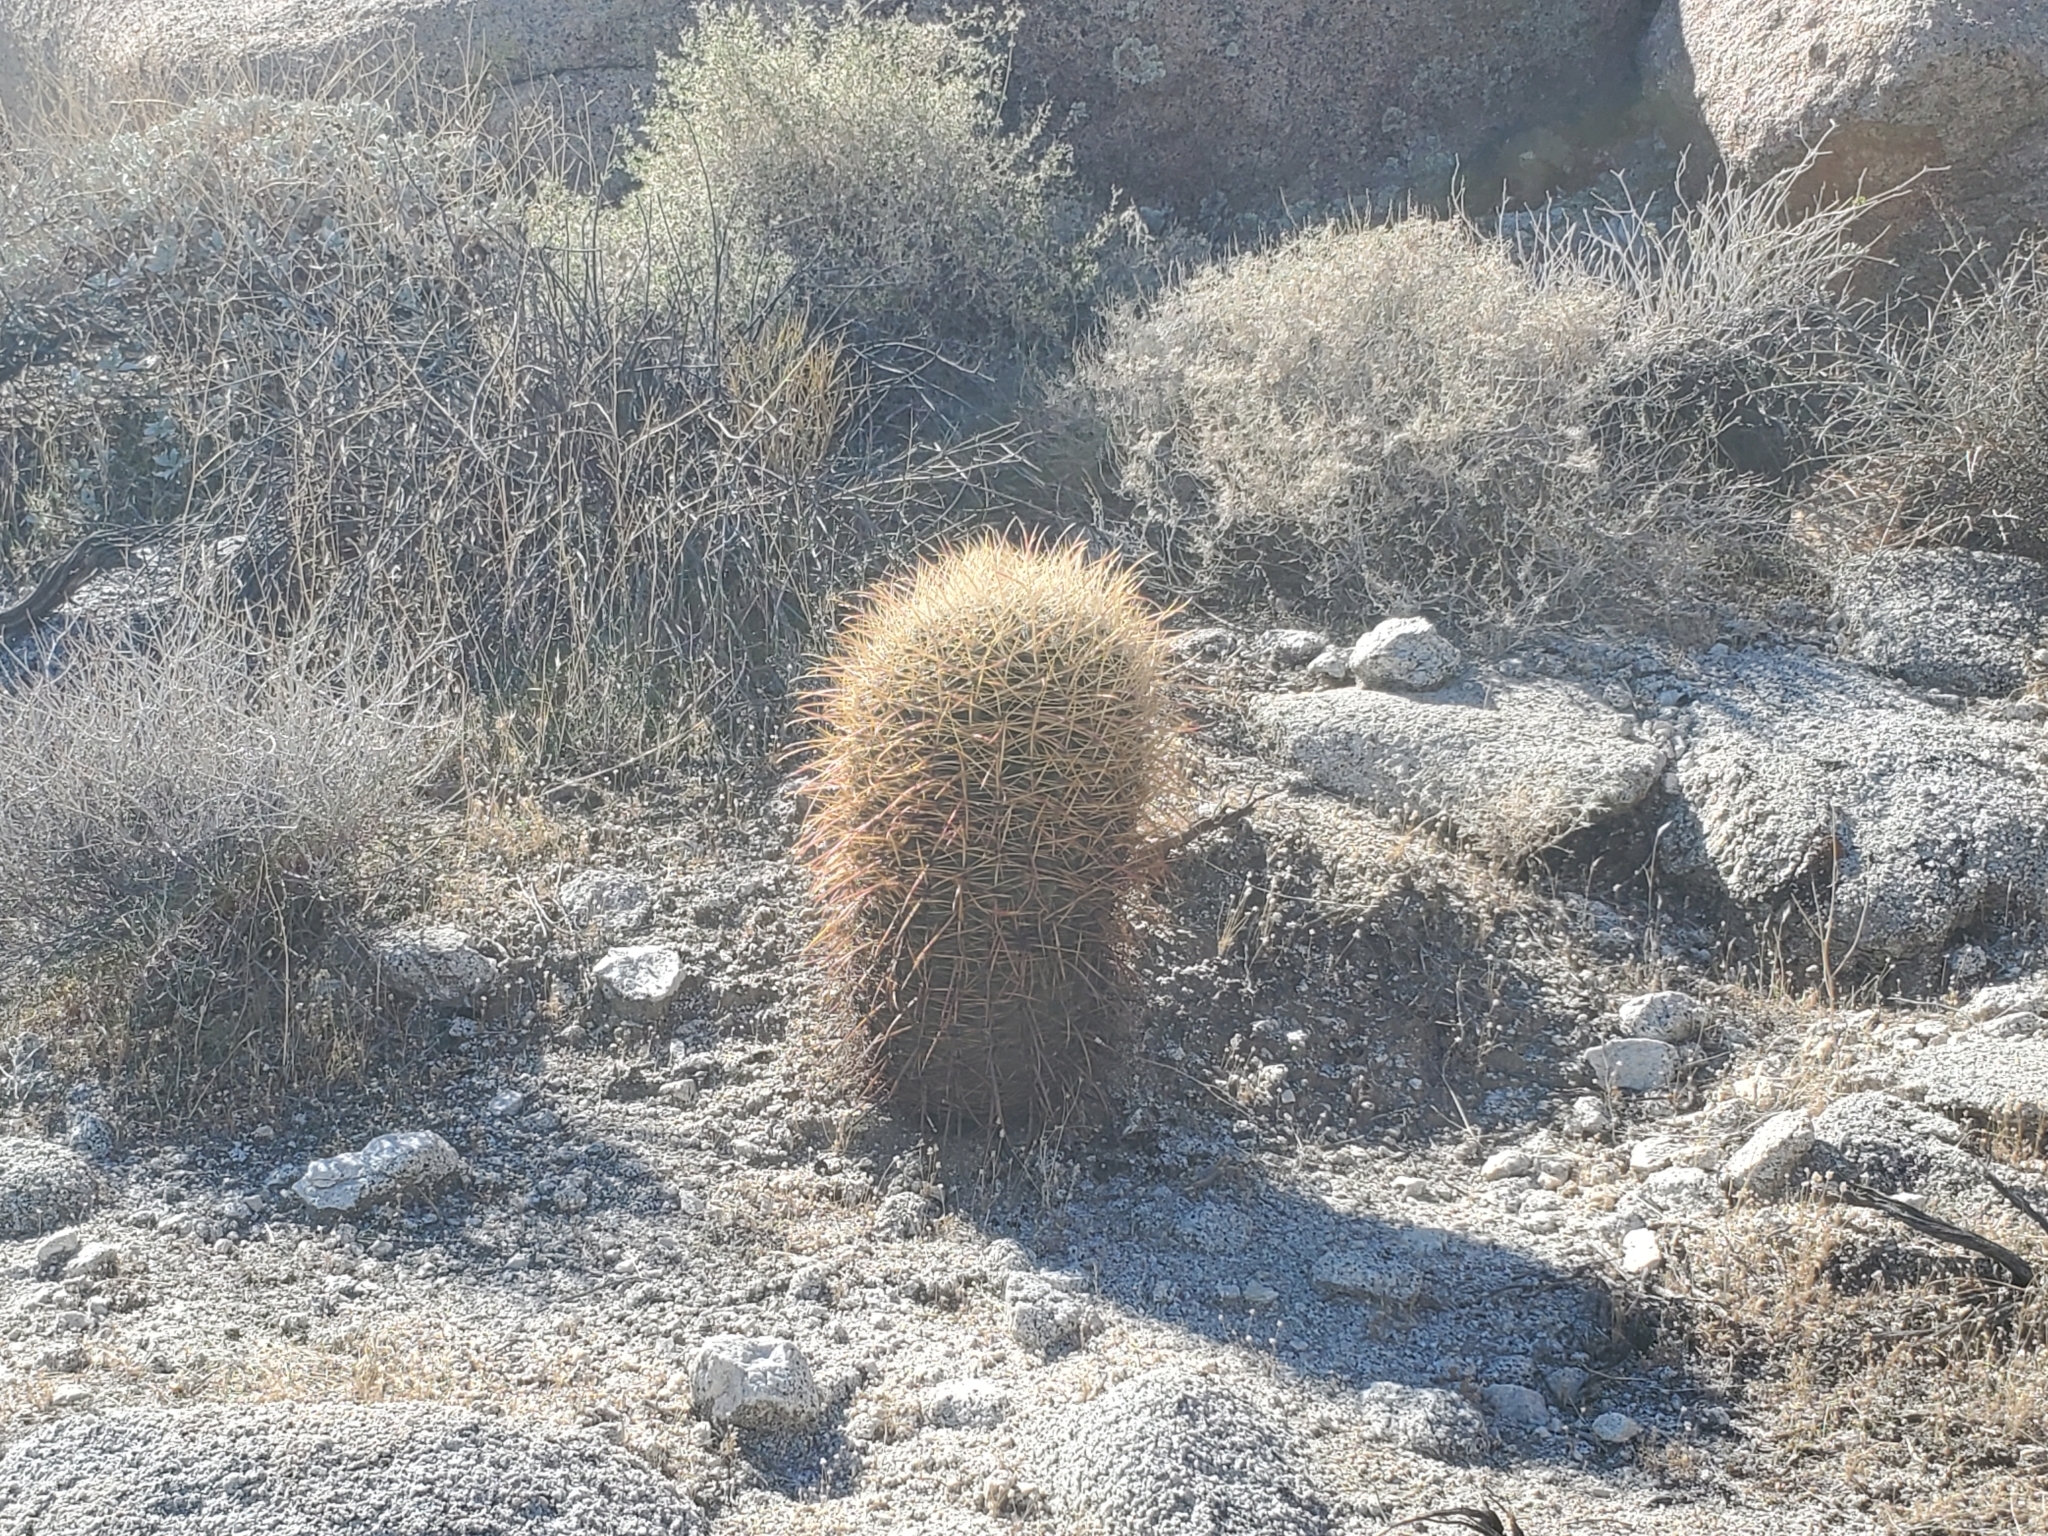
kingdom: Plantae
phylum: Tracheophyta
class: Magnoliopsida
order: Caryophyllales
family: Cactaceae
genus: Ferocactus
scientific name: Ferocactus cylindraceus
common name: California barrel cactus
